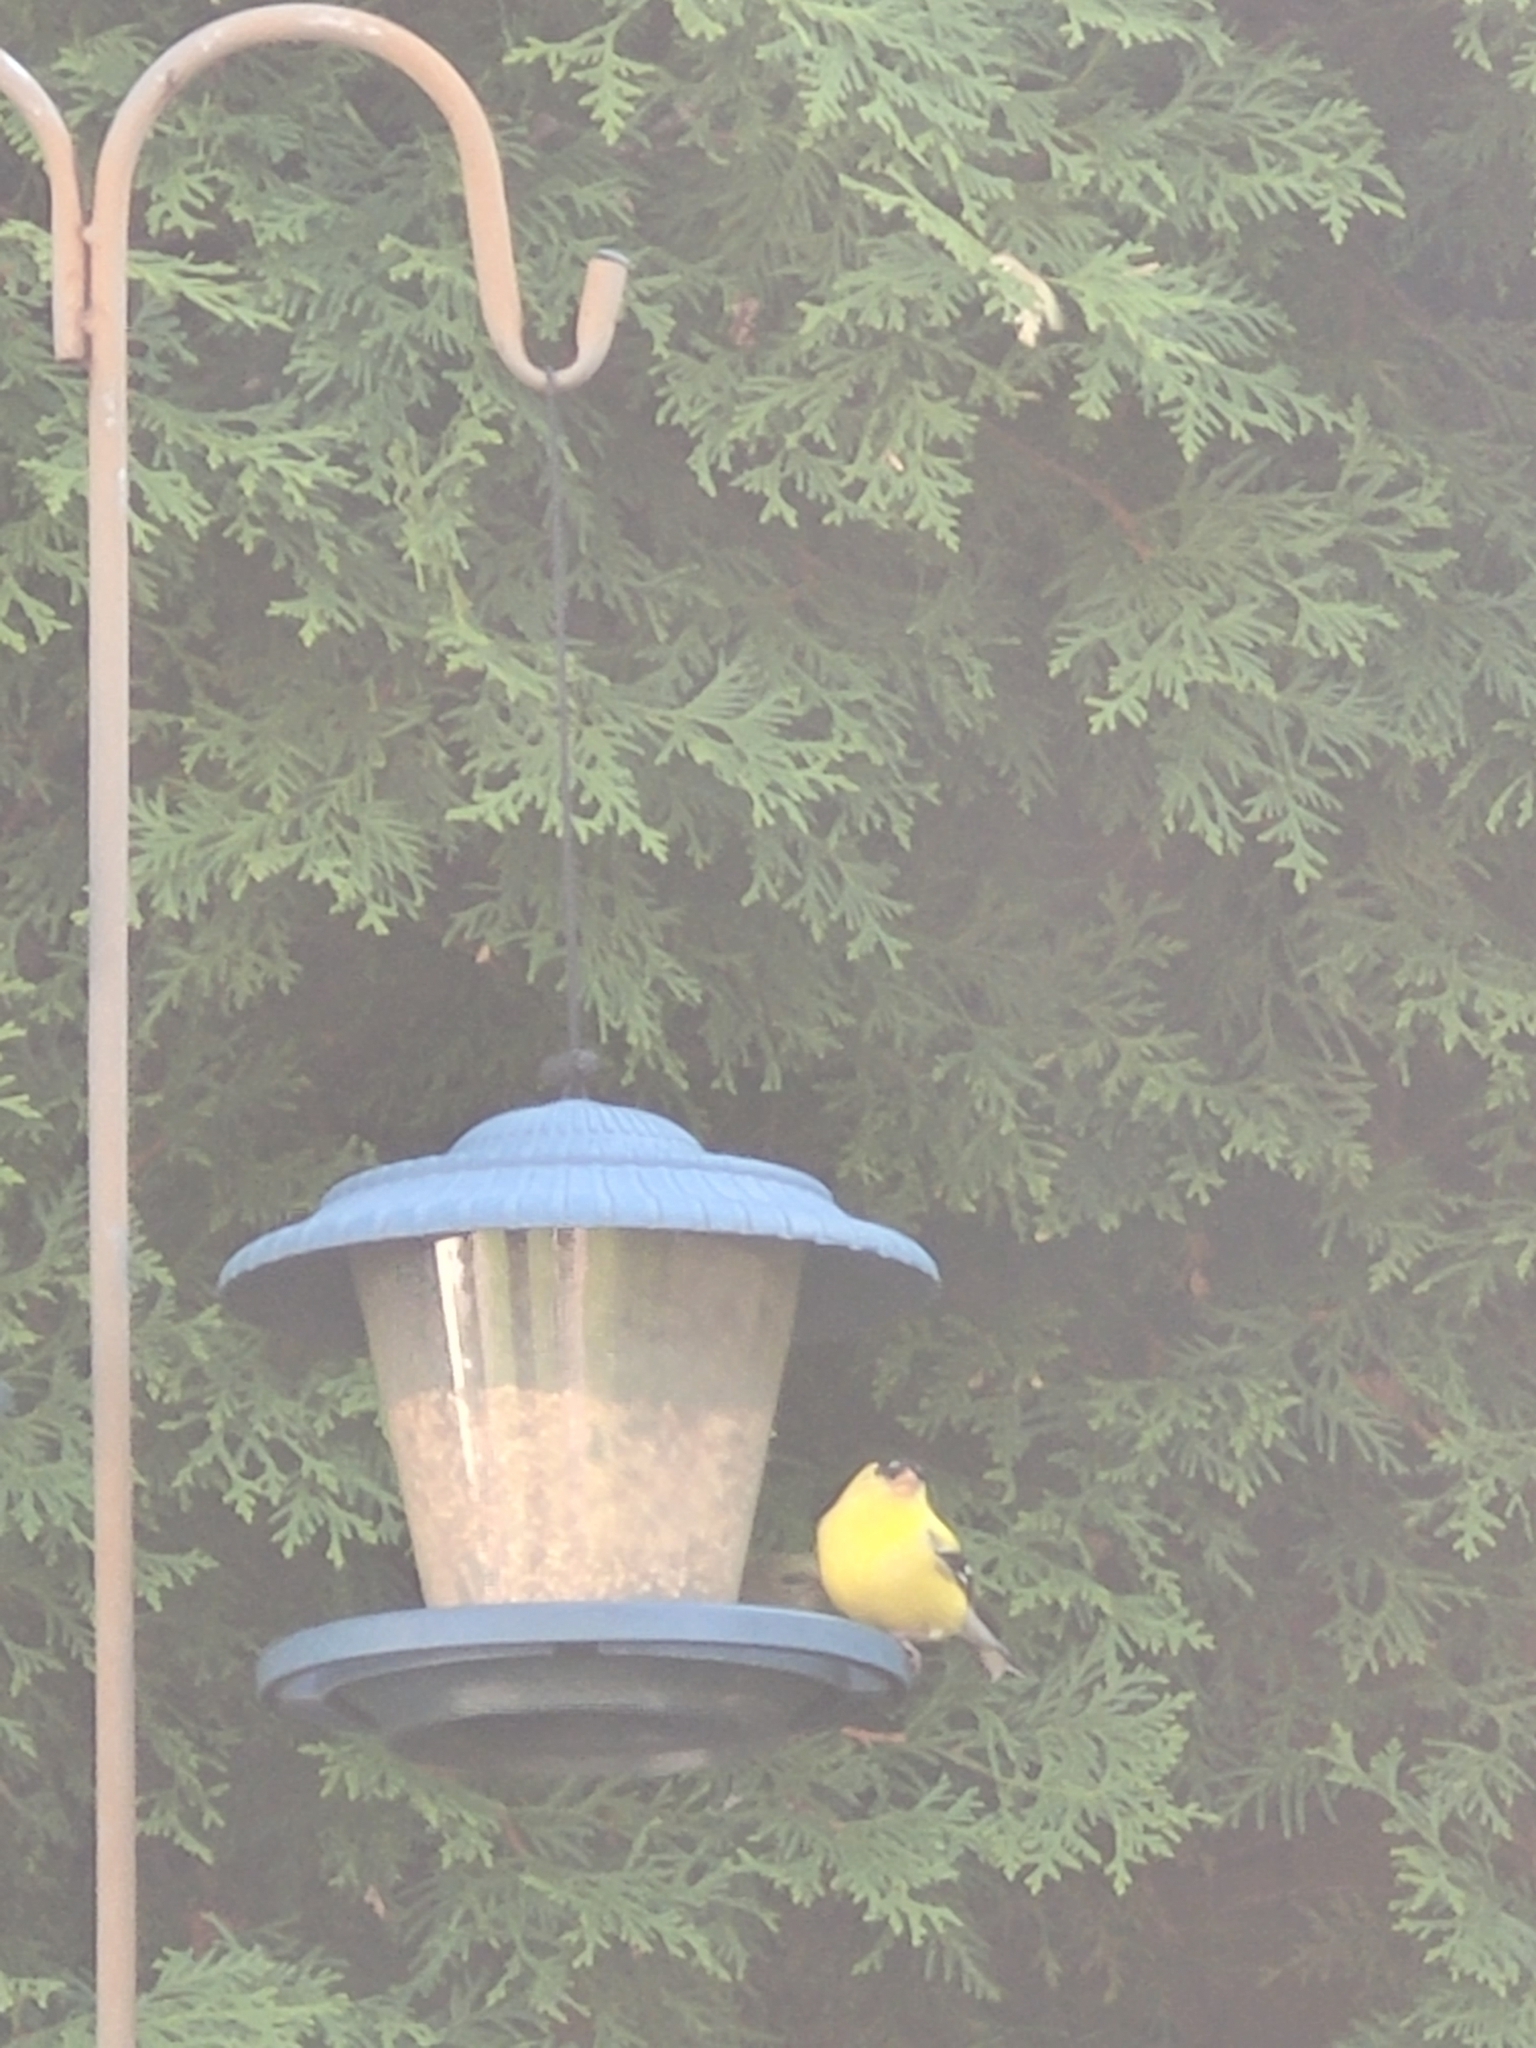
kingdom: Animalia
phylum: Chordata
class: Aves
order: Passeriformes
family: Fringillidae
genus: Spinus
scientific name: Spinus tristis
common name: American goldfinch
